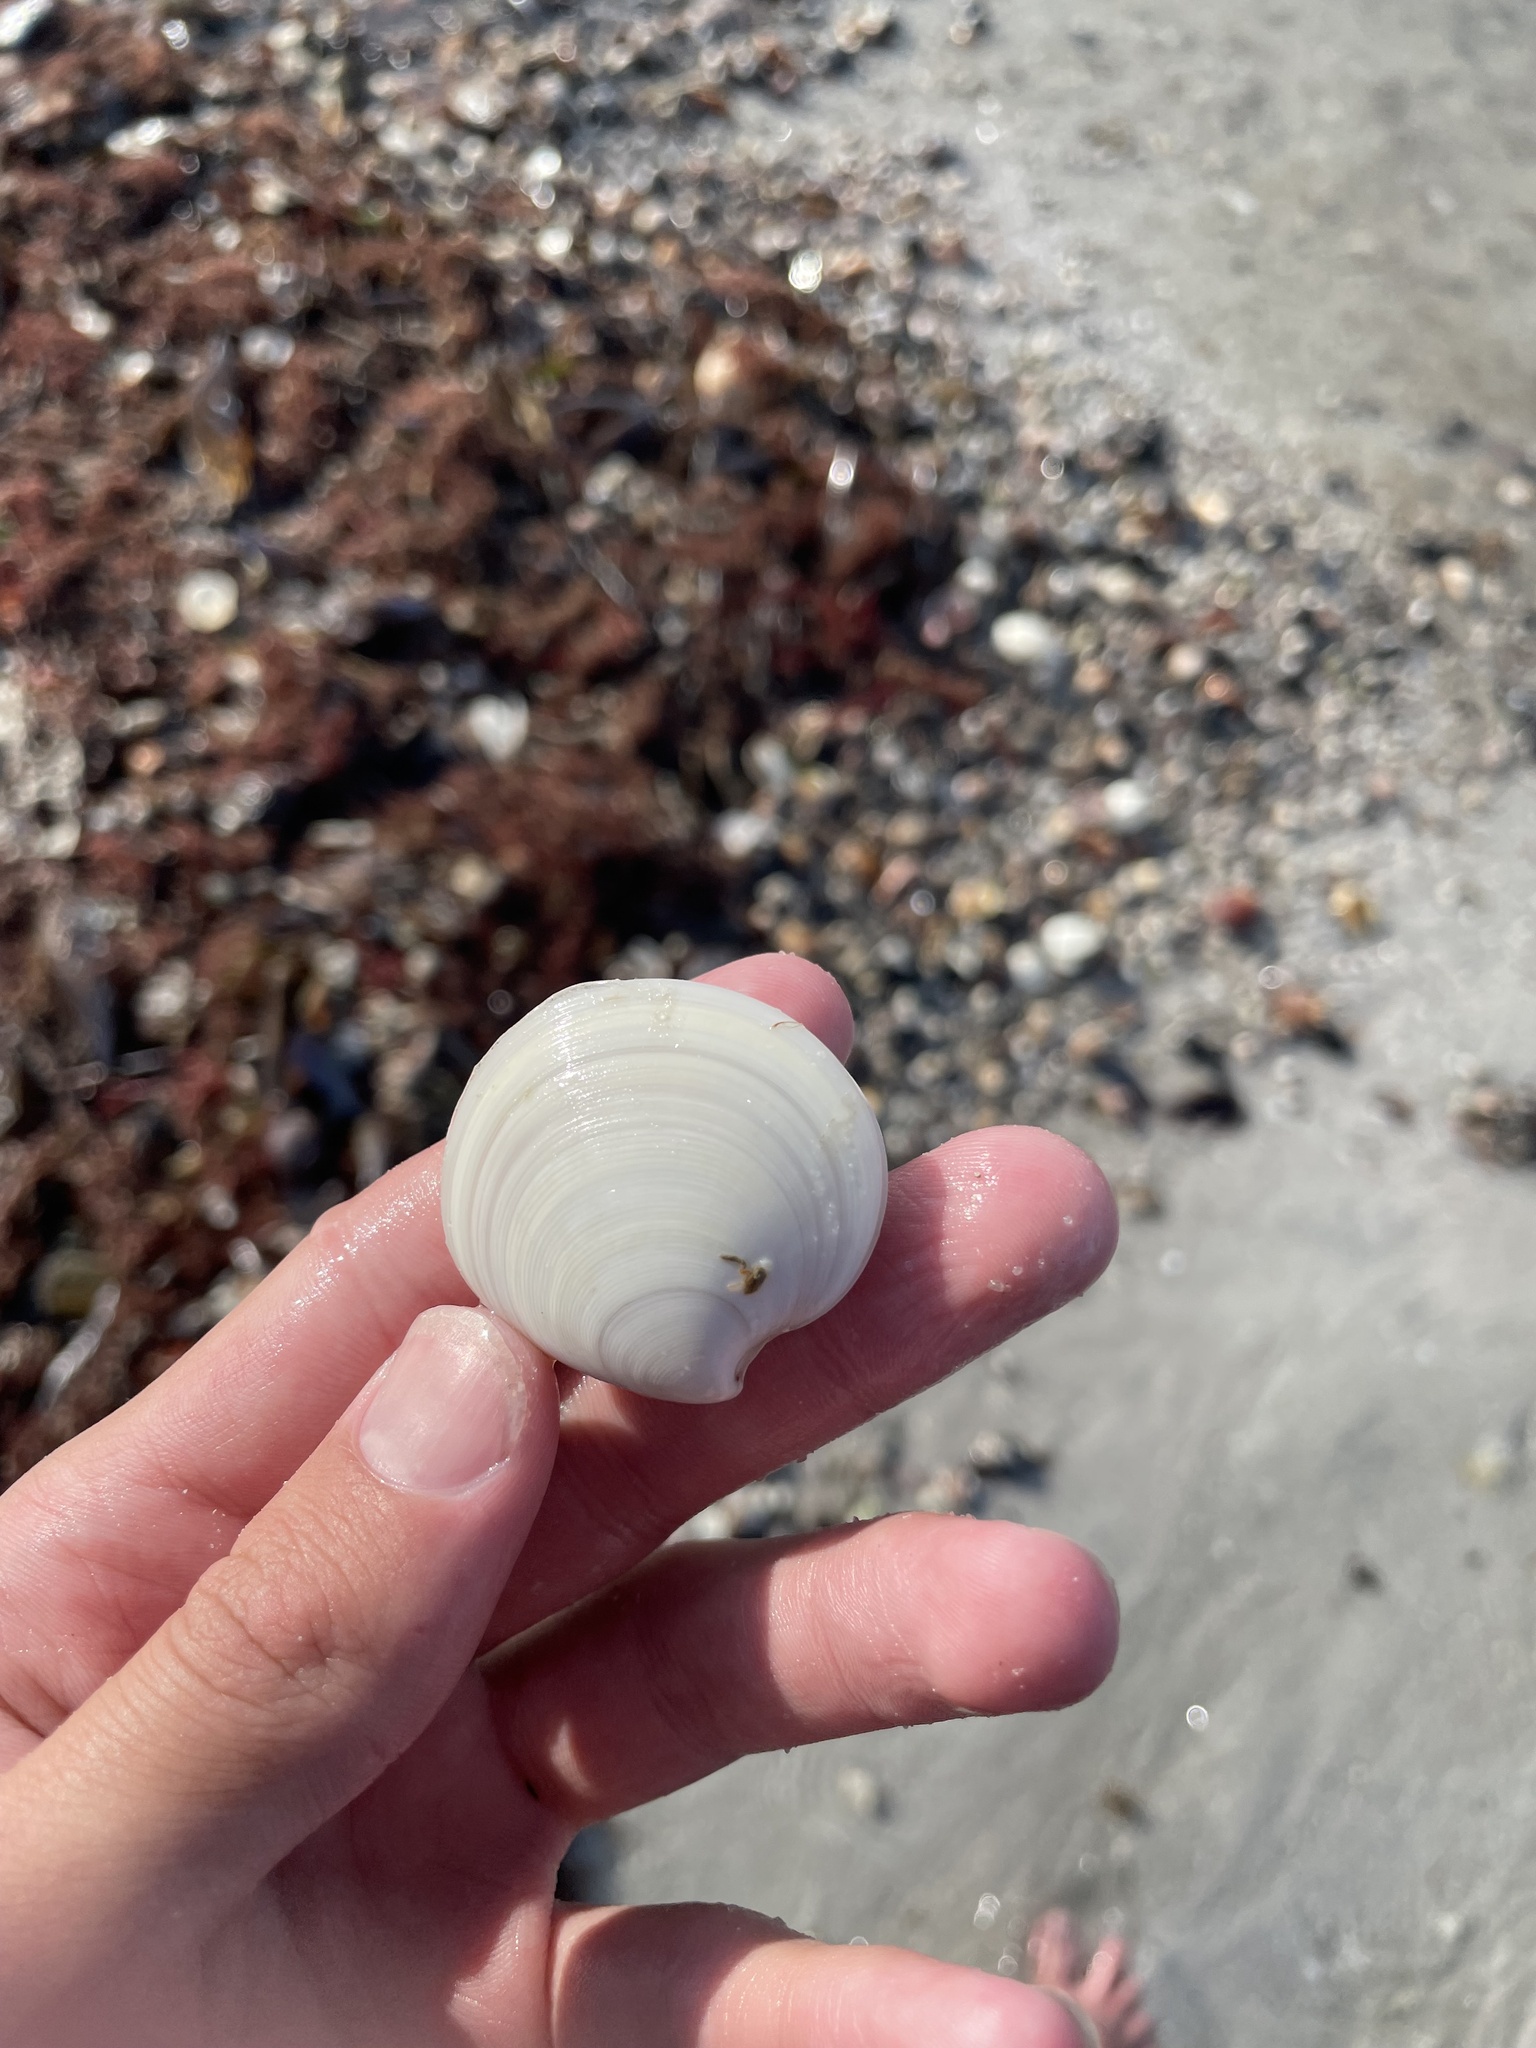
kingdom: Animalia
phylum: Mollusca
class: Bivalvia
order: Venerida
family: Veneridae
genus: Dosinia
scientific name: Dosinia discus
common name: Disk dosinia
